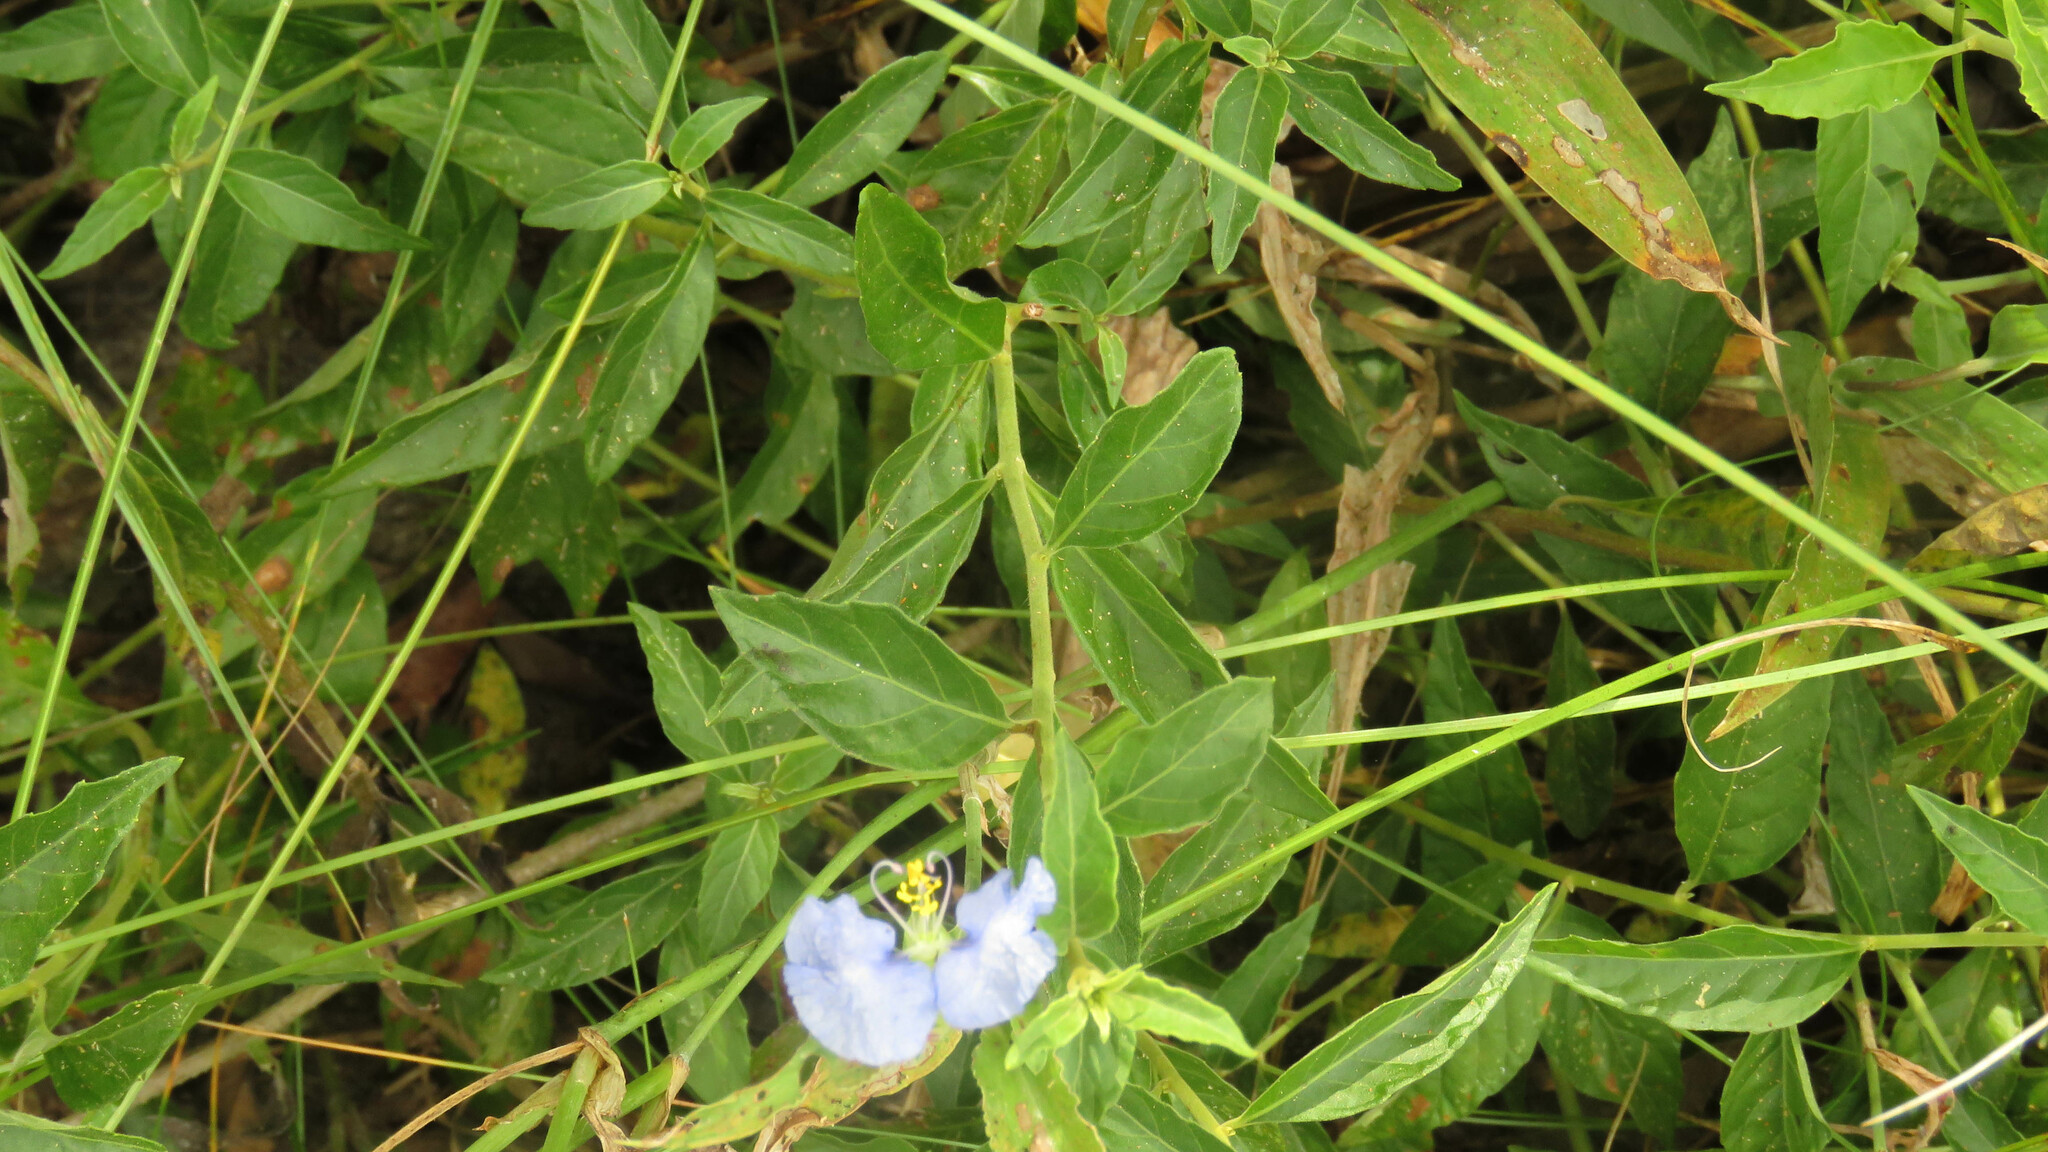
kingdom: Plantae
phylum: Tracheophyta
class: Liliopsida
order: Commelinales
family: Commelinaceae
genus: Commelina
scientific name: Commelina erecta
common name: Blousel blommetjie
